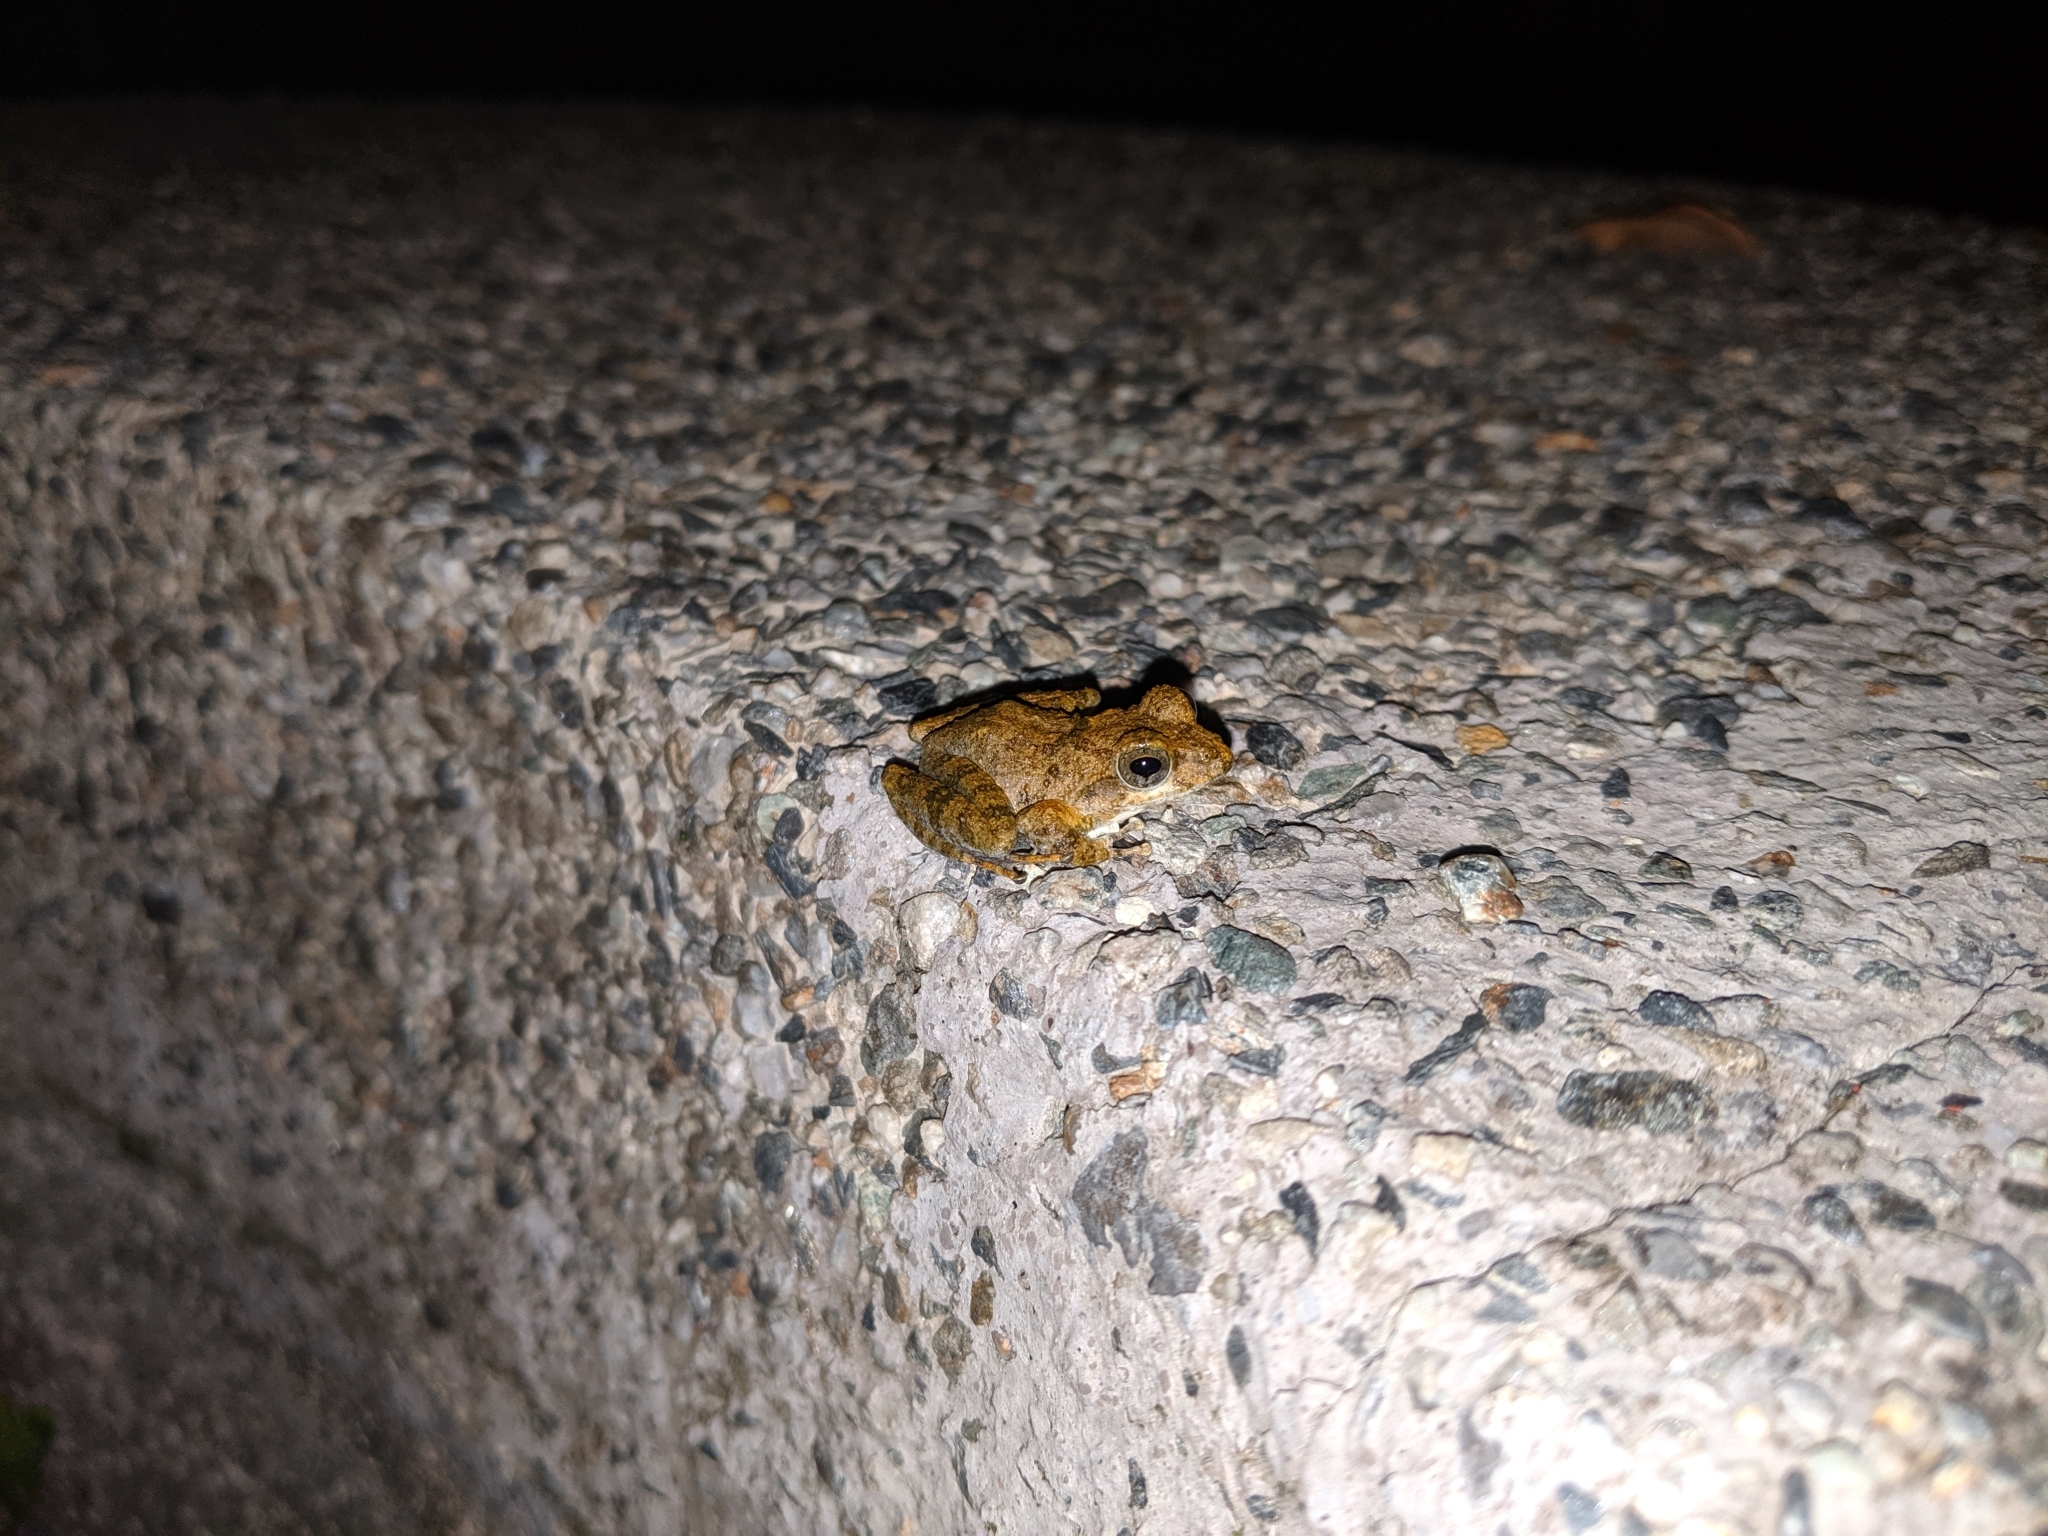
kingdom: Animalia
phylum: Chordata
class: Amphibia
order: Anura
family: Rhacophoridae
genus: Buergeria
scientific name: Buergeria otai
